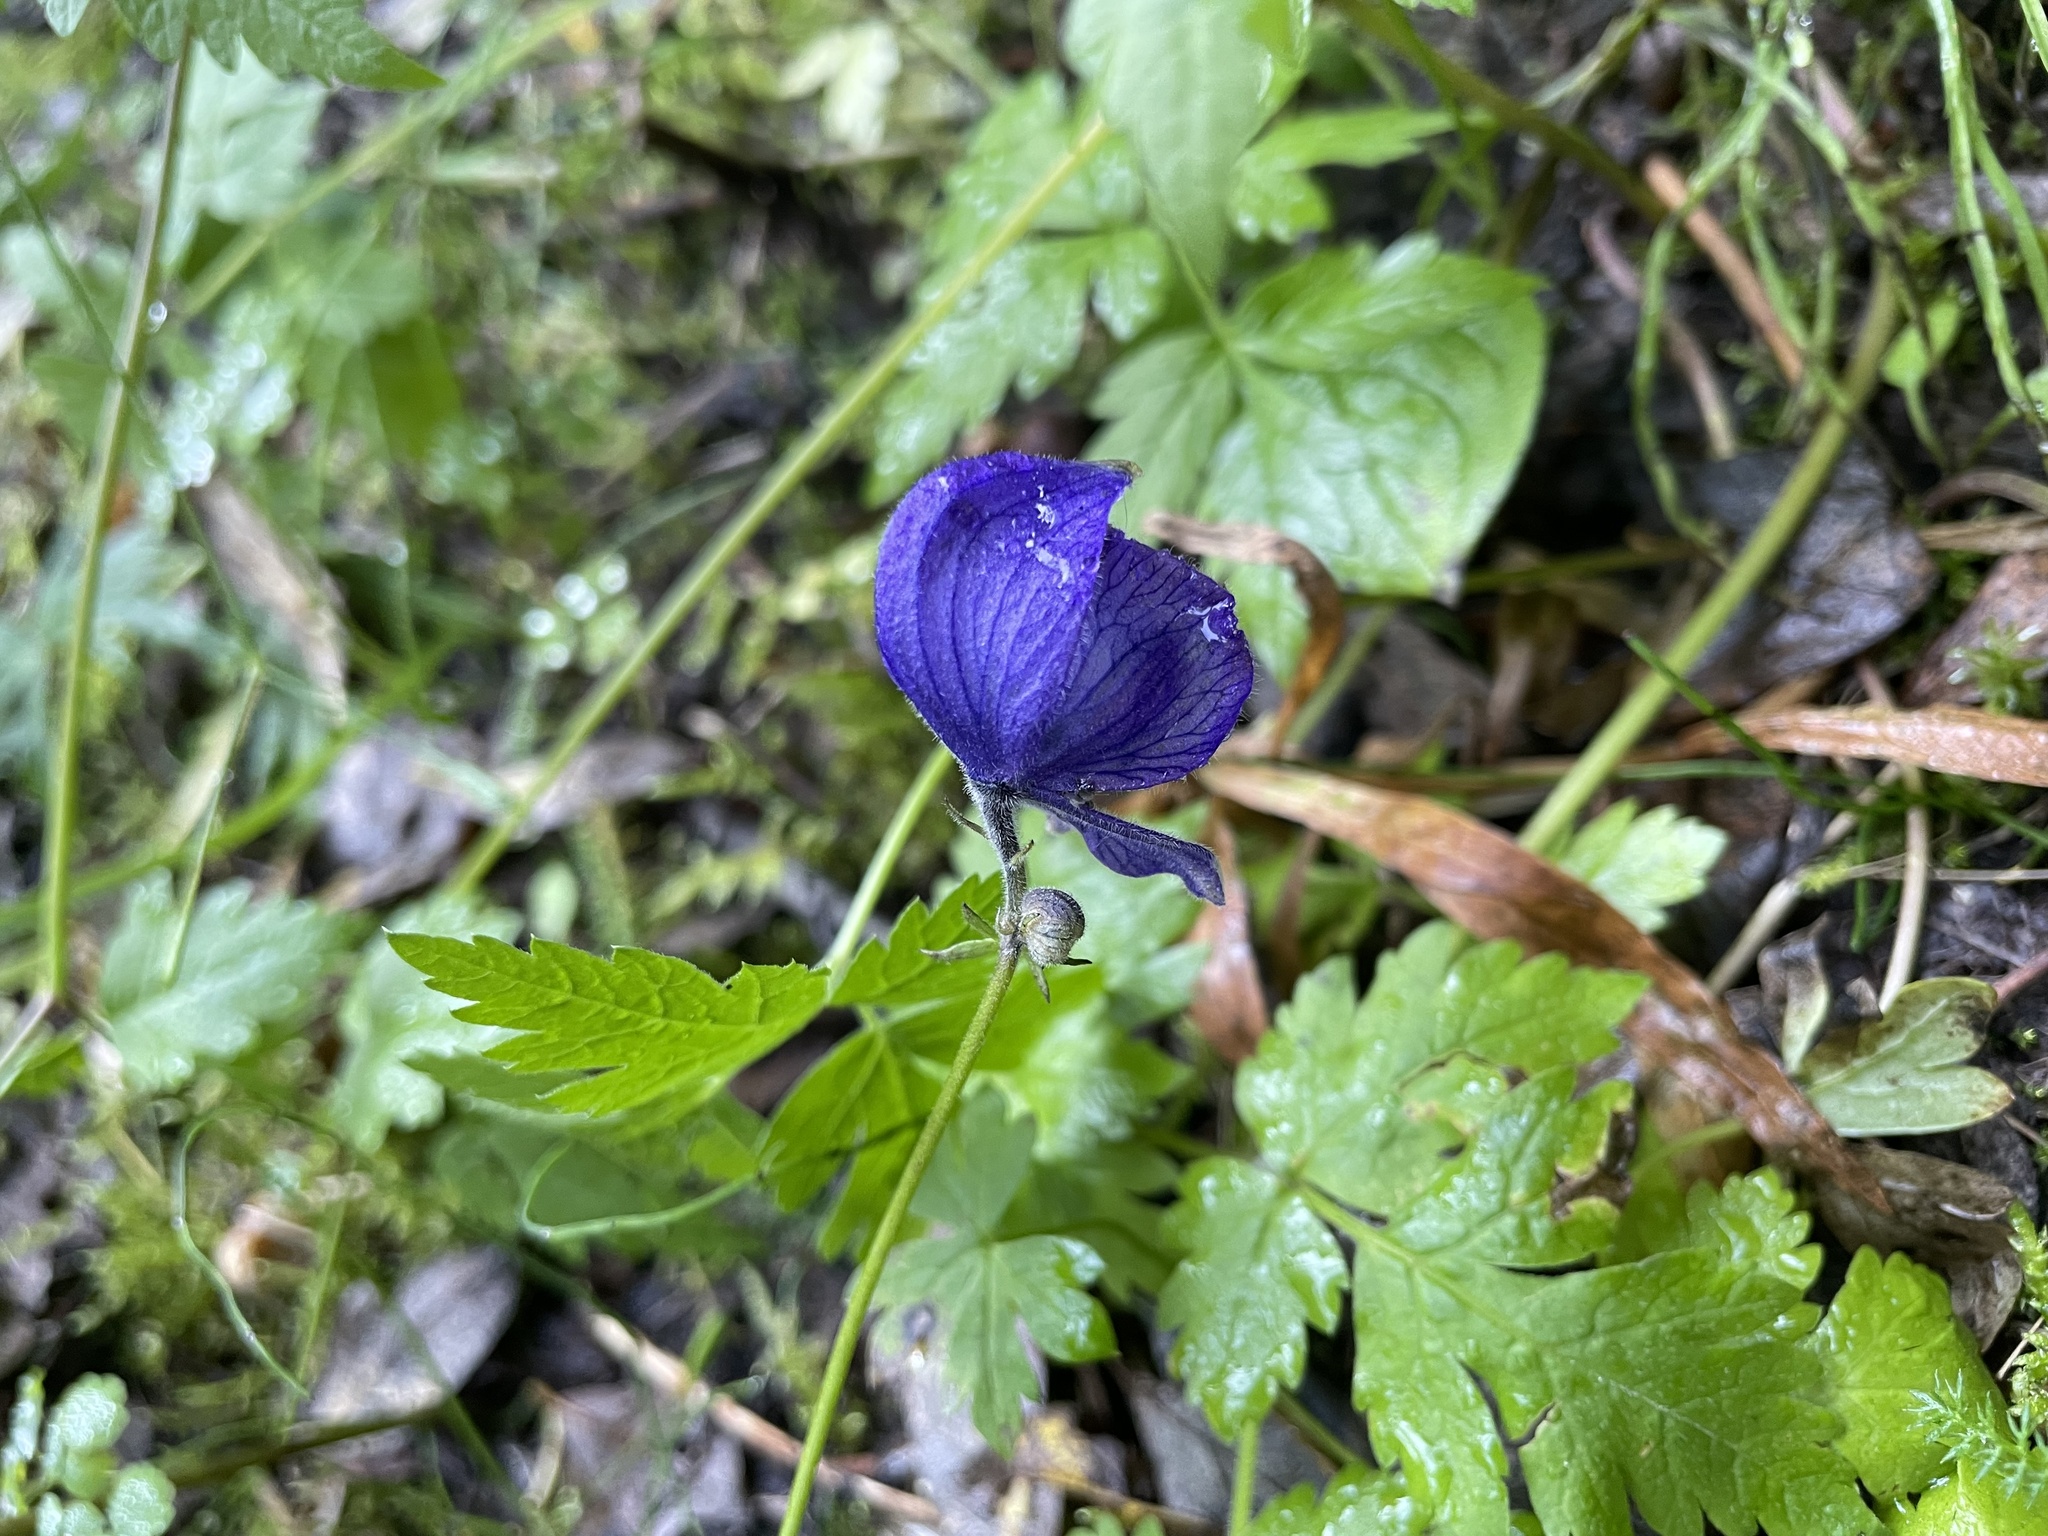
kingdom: Plantae
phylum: Tracheophyta
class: Magnoliopsida
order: Ranunculales
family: Ranunculaceae
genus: Aconitum
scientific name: Aconitum delphiniifolium
